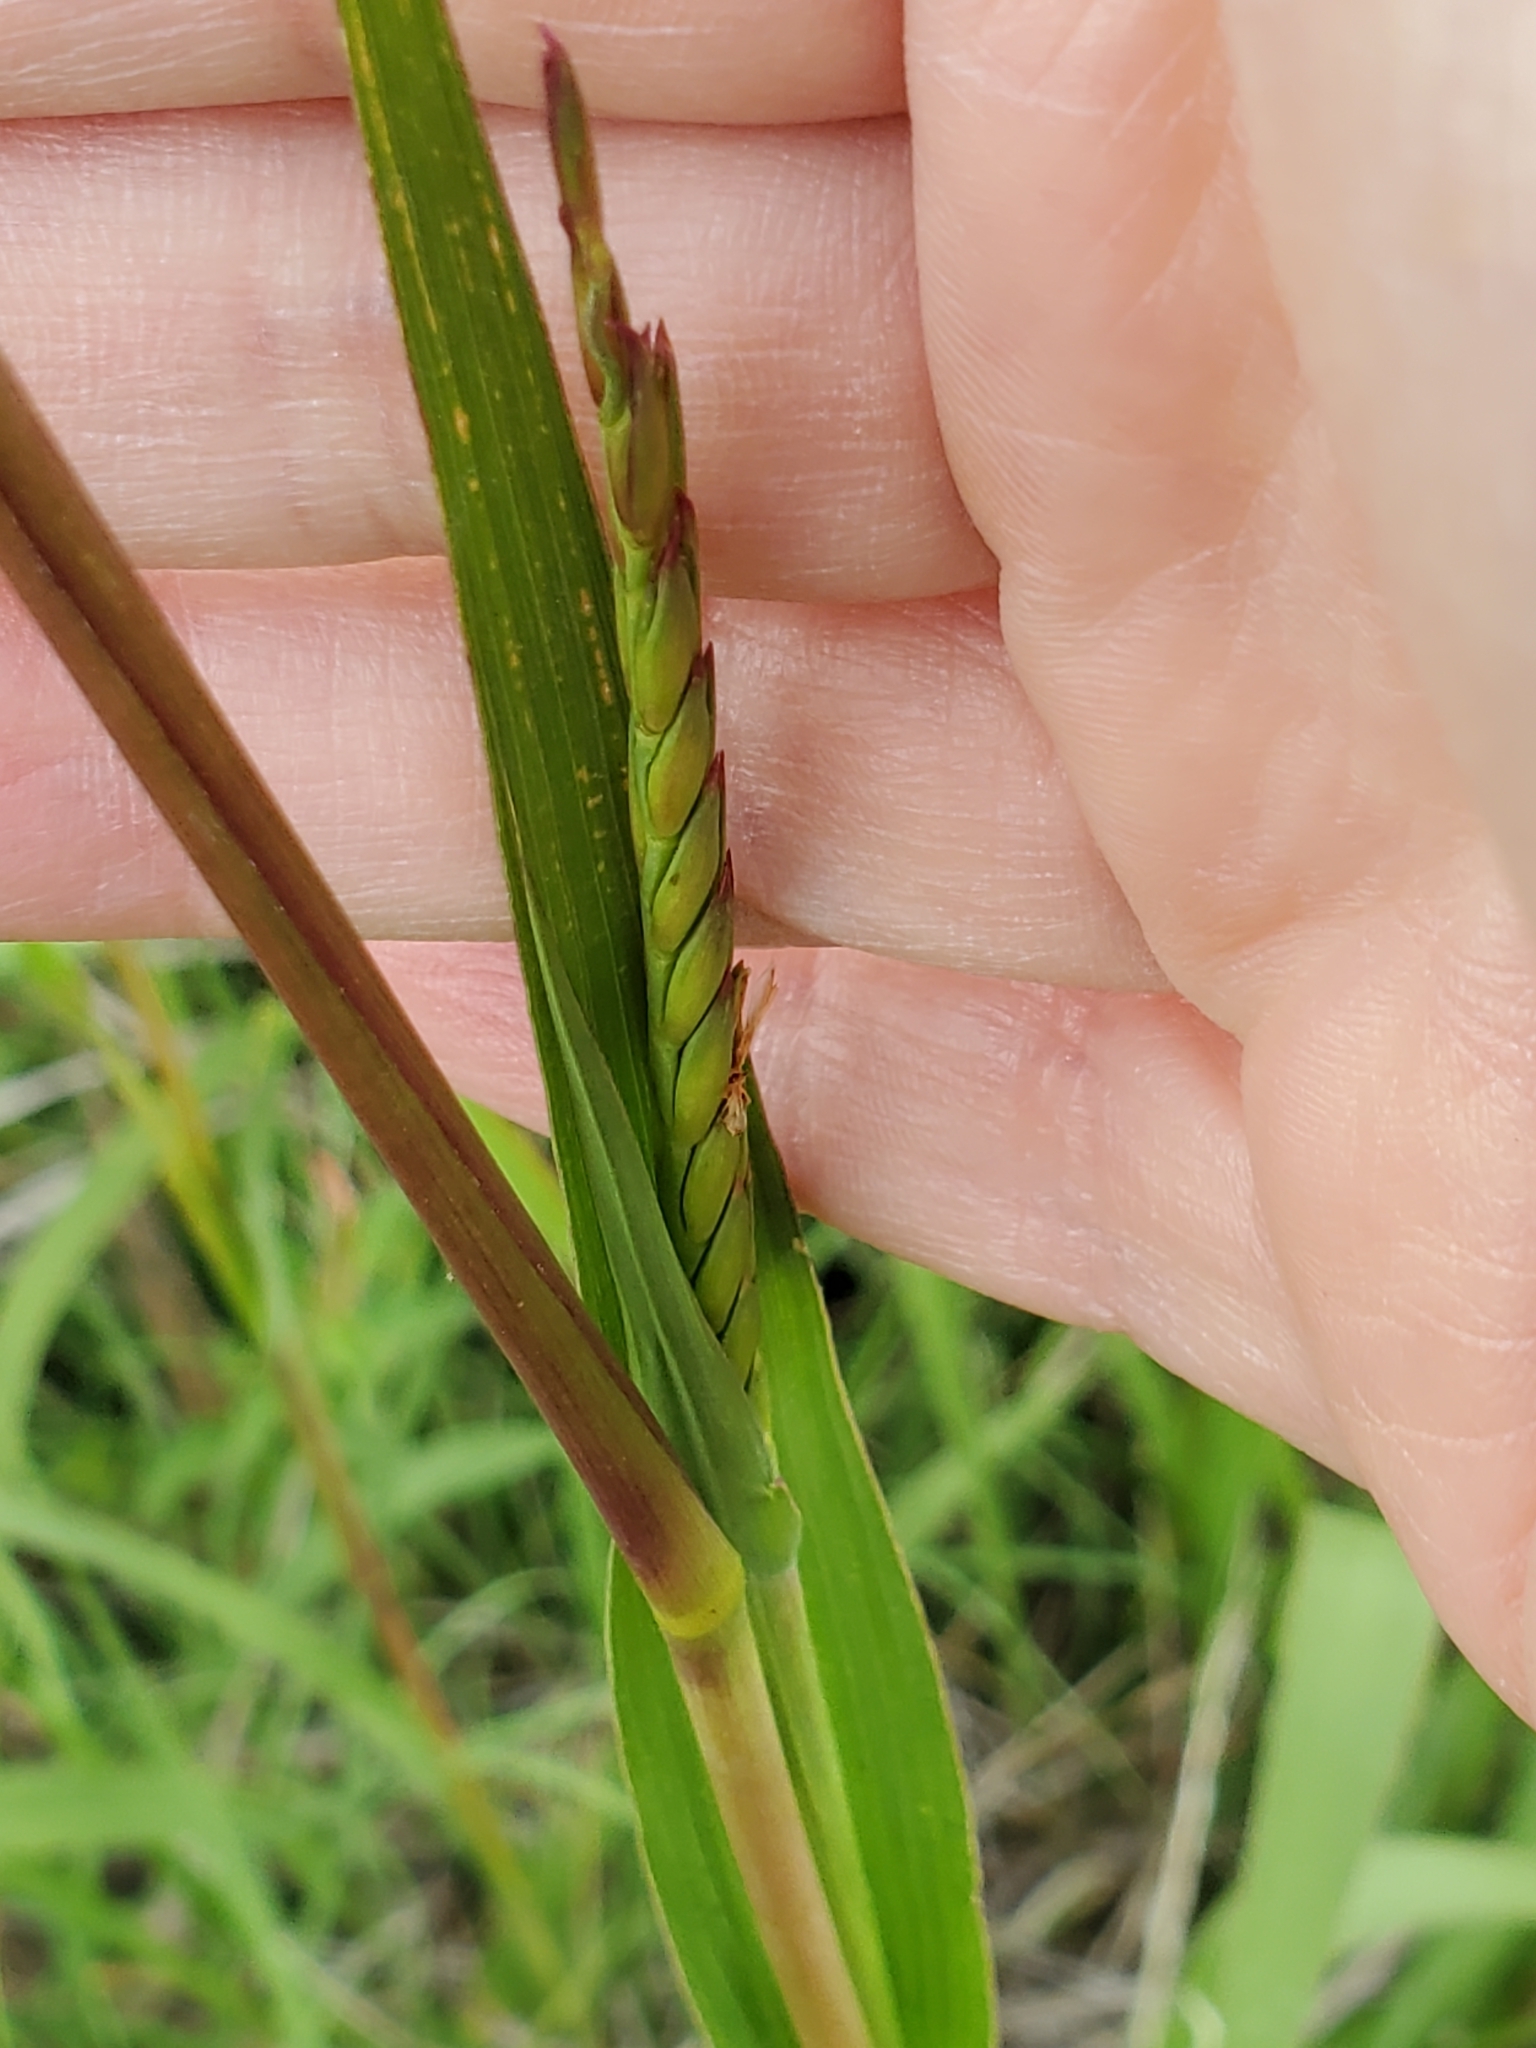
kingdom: Plantae
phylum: Tracheophyta
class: Liliopsida
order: Poales
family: Poaceae
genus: Tripsacum
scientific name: Tripsacum dactyloides
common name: Buffalo-grass
